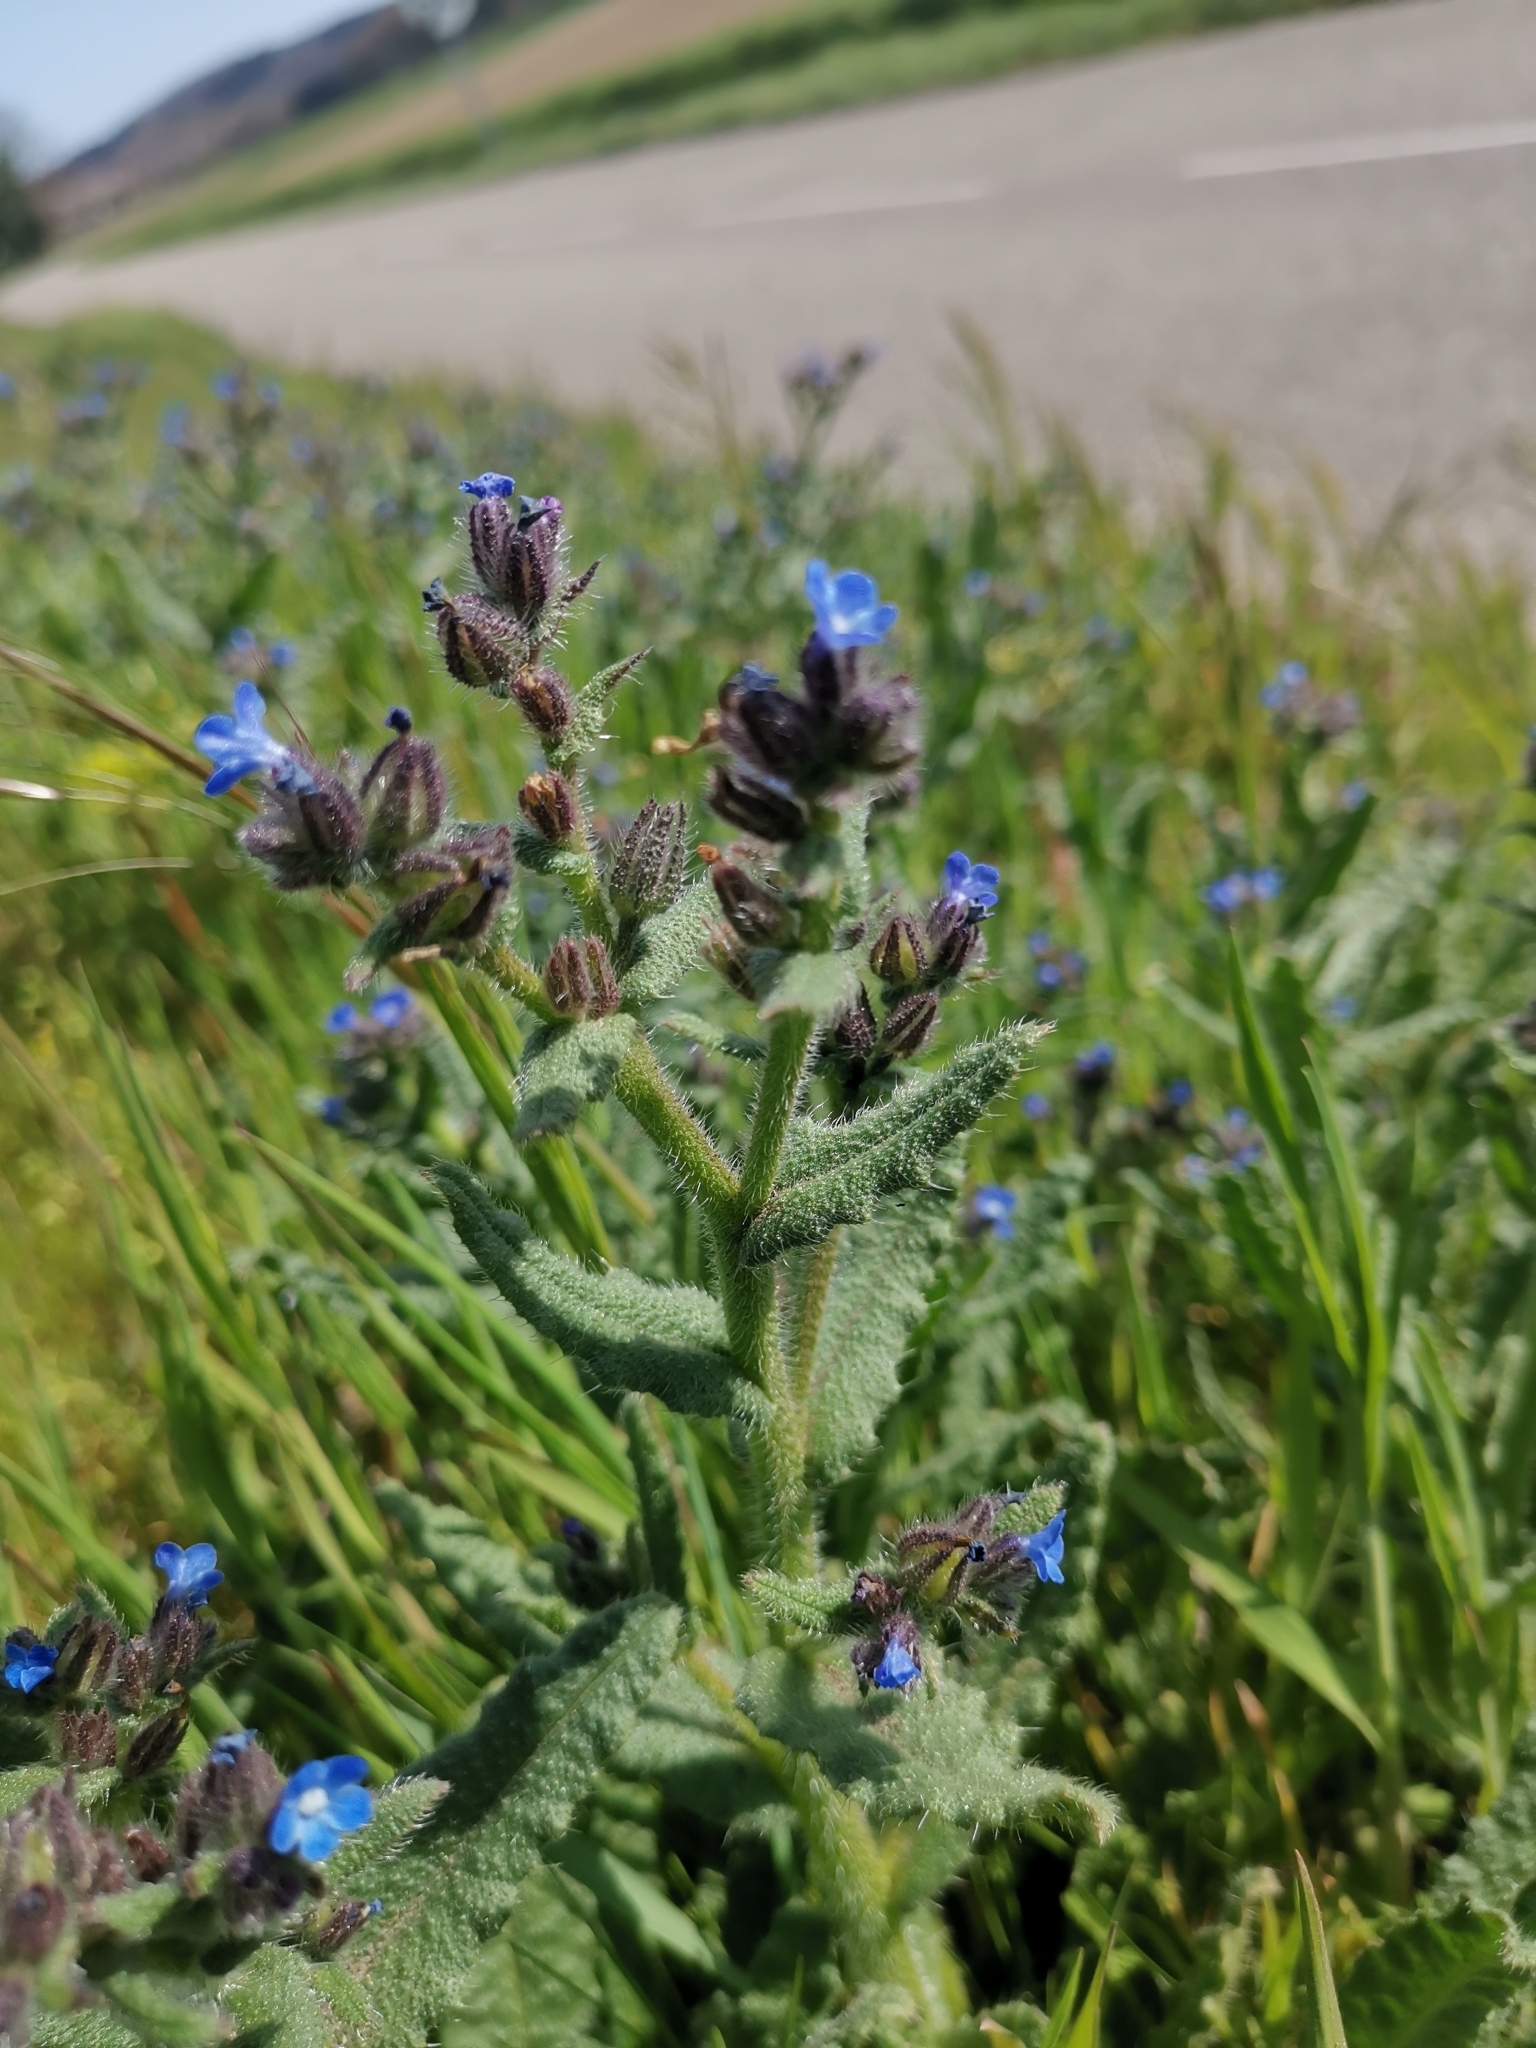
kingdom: Plantae
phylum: Tracheophyta
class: Magnoliopsida
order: Boraginales
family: Boraginaceae
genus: Lycopsis
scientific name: Lycopsis arvensis
